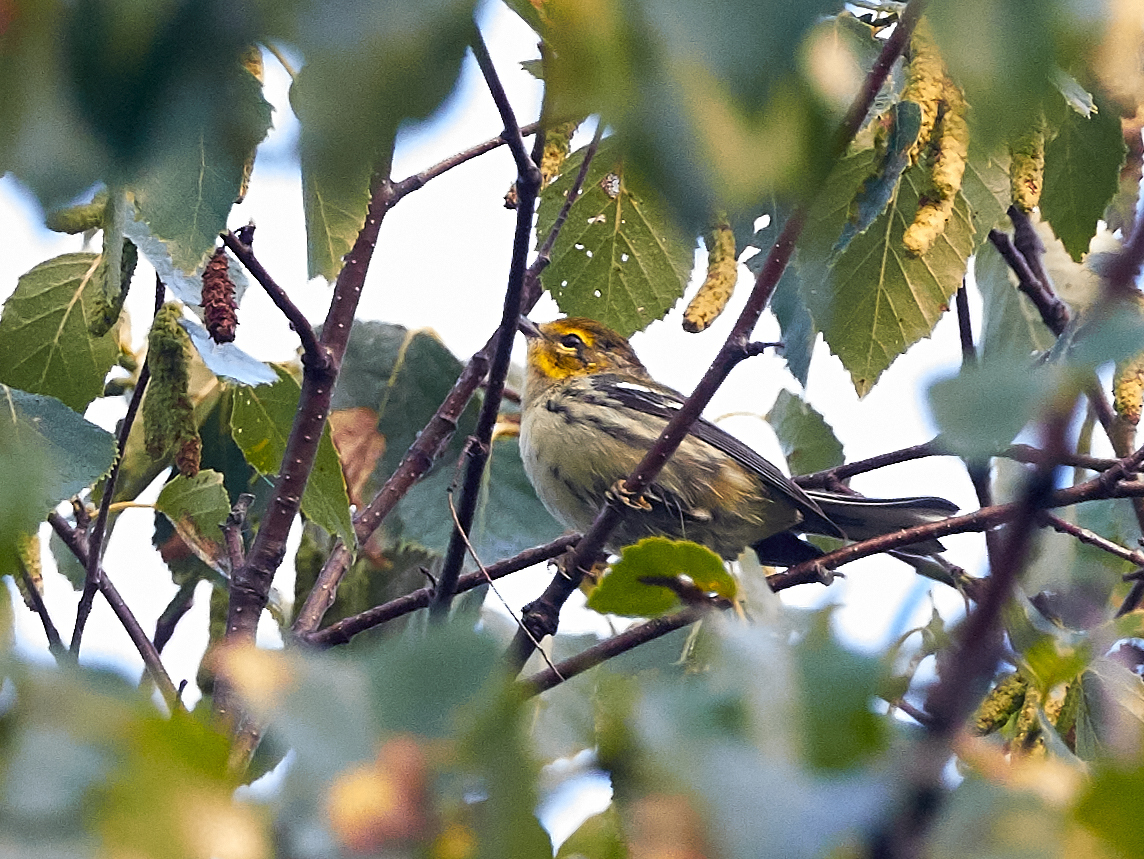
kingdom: Animalia
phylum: Chordata
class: Aves
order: Passeriformes
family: Parulidae
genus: Setophaga
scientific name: Setophaga virens
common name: Black-throated green warbler
